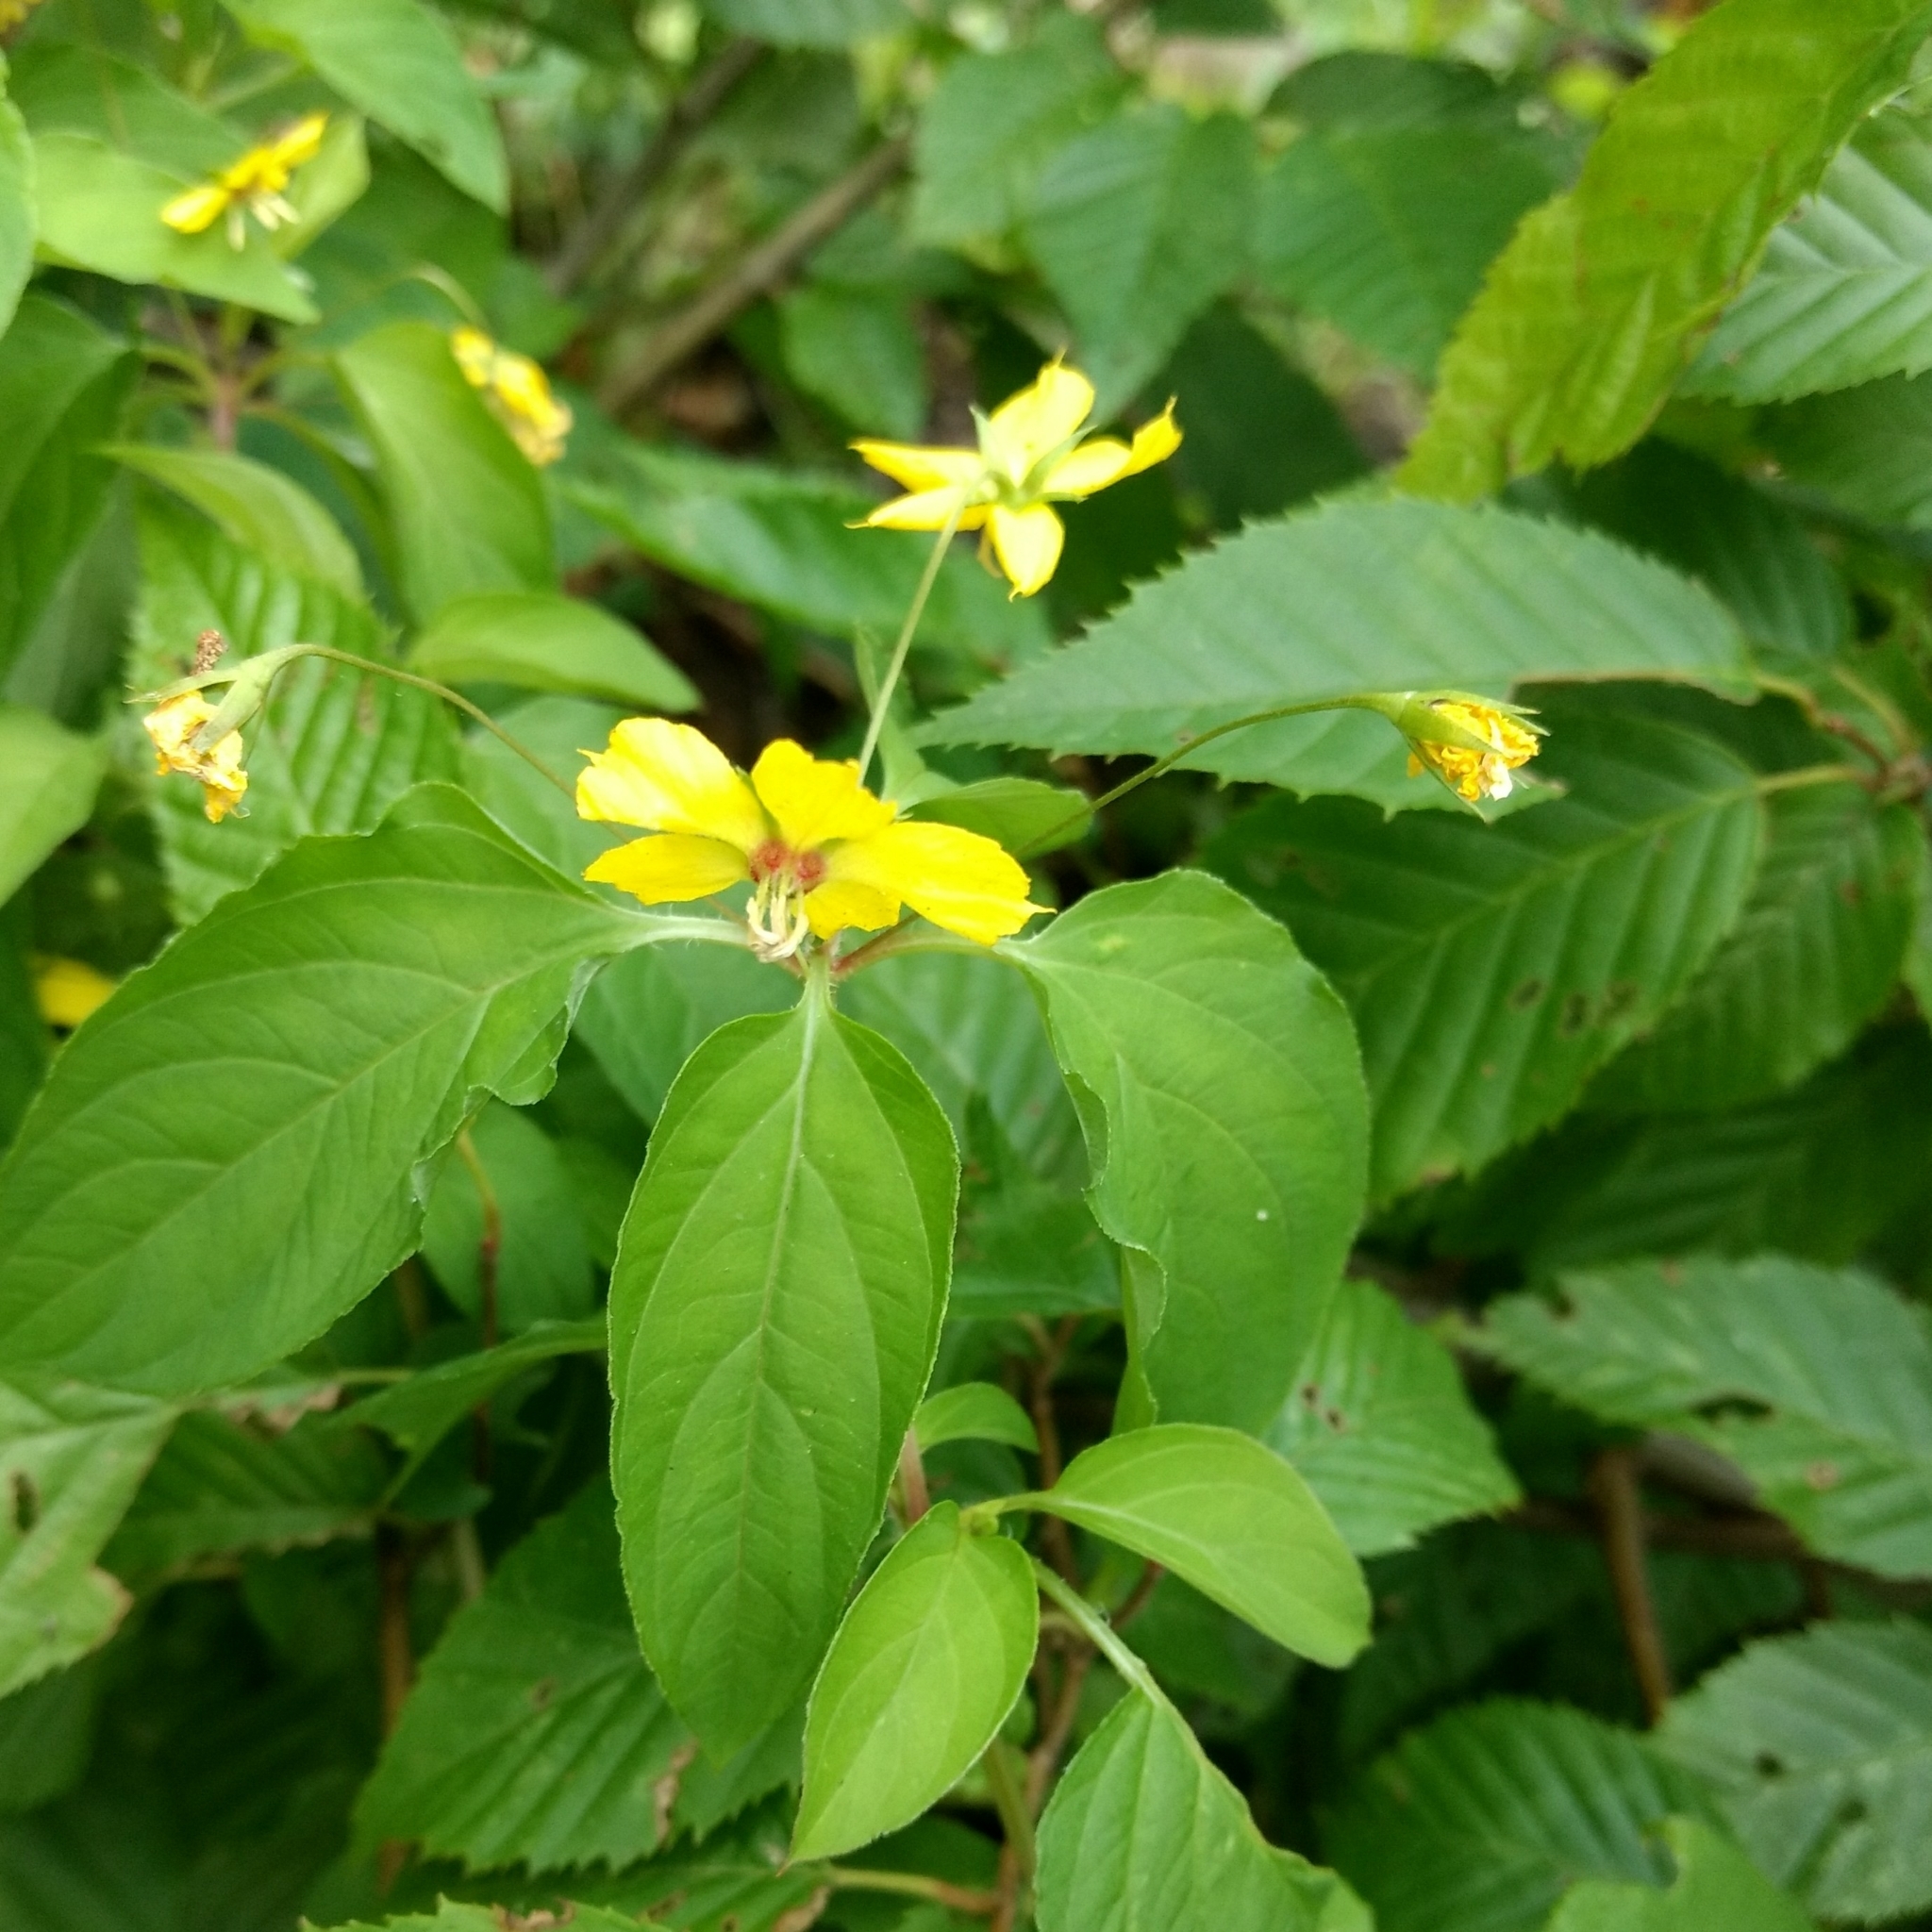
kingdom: Plantae
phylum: Tracheophyta
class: Magnoliopsida
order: Ericales
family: Primulaceae
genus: Lysimachia
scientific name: Lysimachia ciliata
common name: Fringed loosestrife
